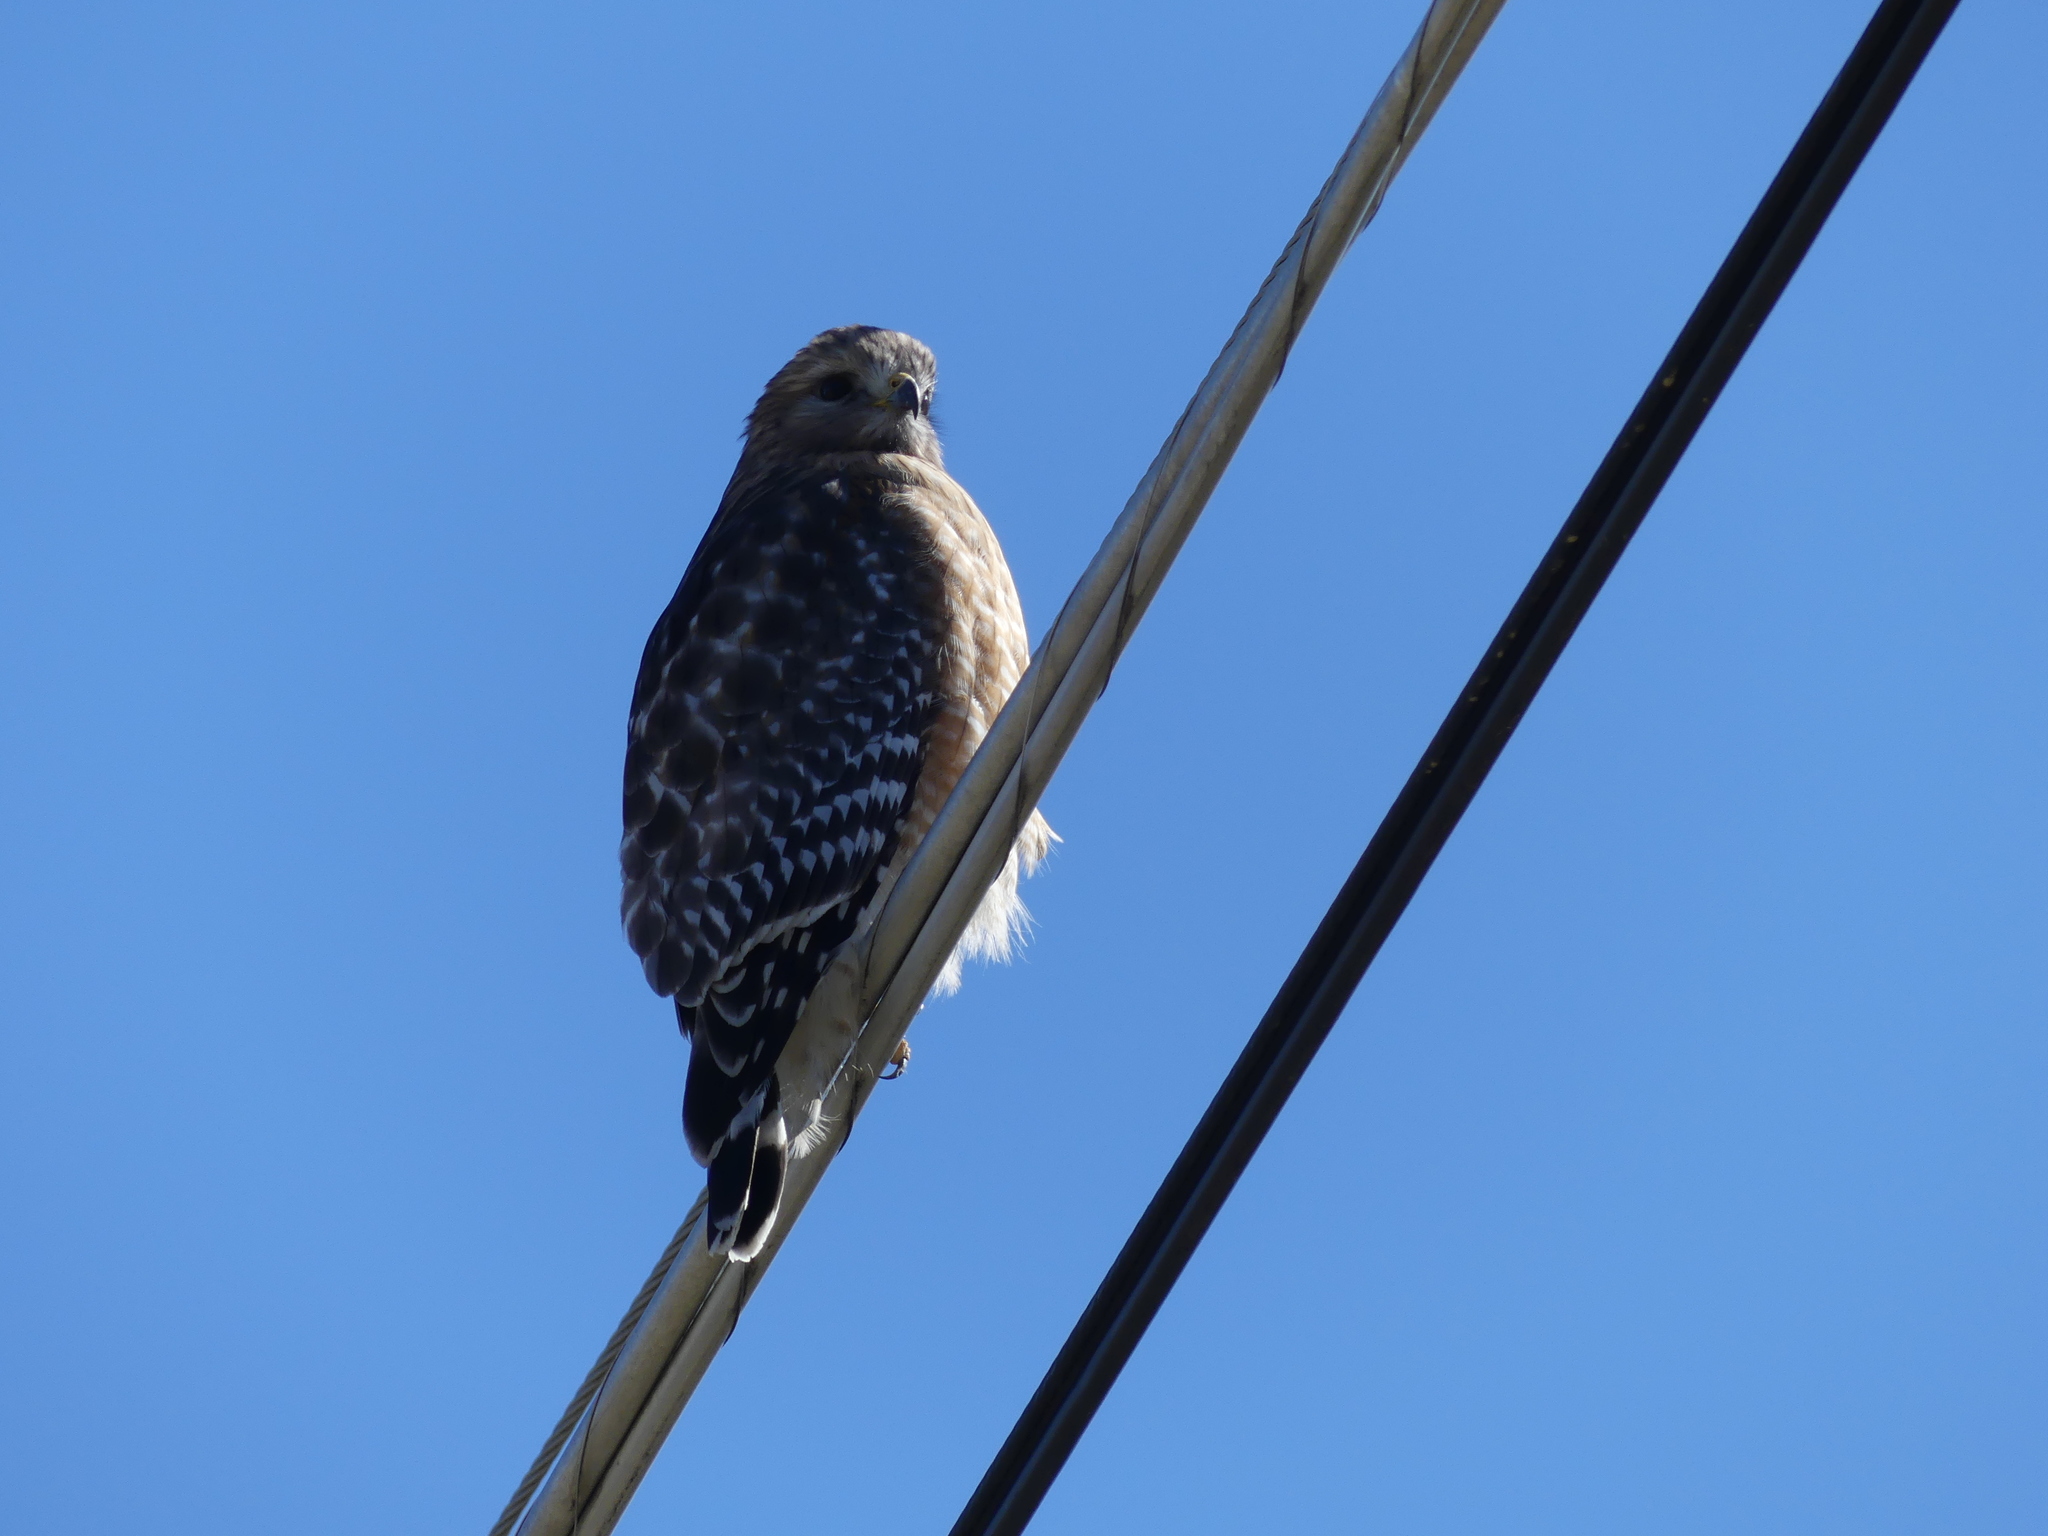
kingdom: Animalia
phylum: Chordata
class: Aves
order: Accipitriformes
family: Accipitridae
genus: Buteo
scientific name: Buteo lineatus
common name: Red-shouldered hawk
